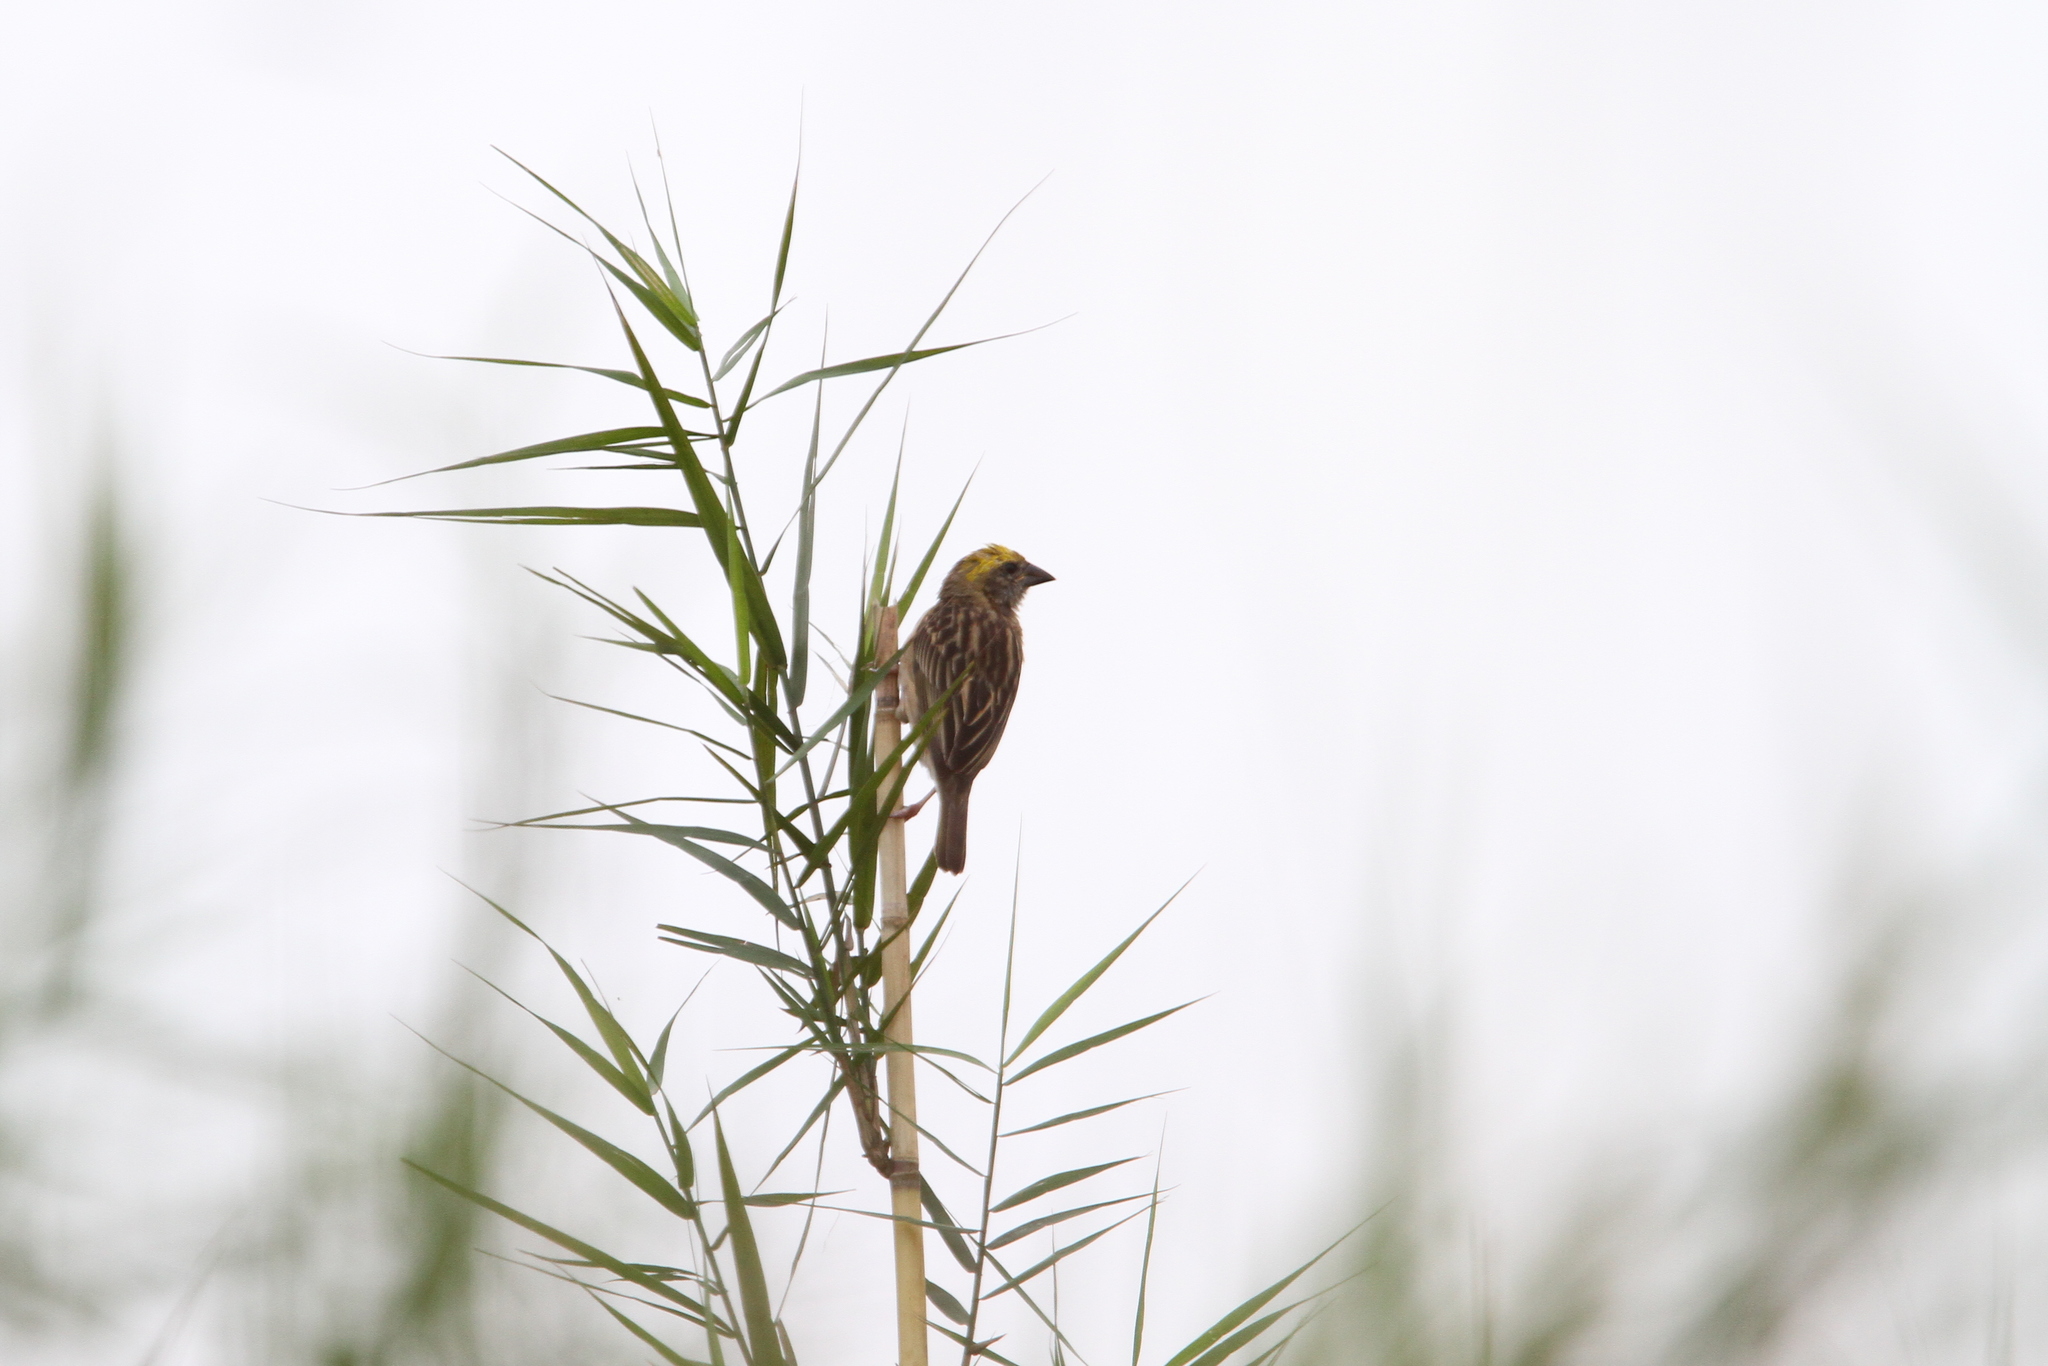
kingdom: Animalia
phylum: Chordata
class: Aves
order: Passeriformes
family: Ploceidae
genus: Ploceus
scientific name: Ploceus philippinus
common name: Baya weaver
